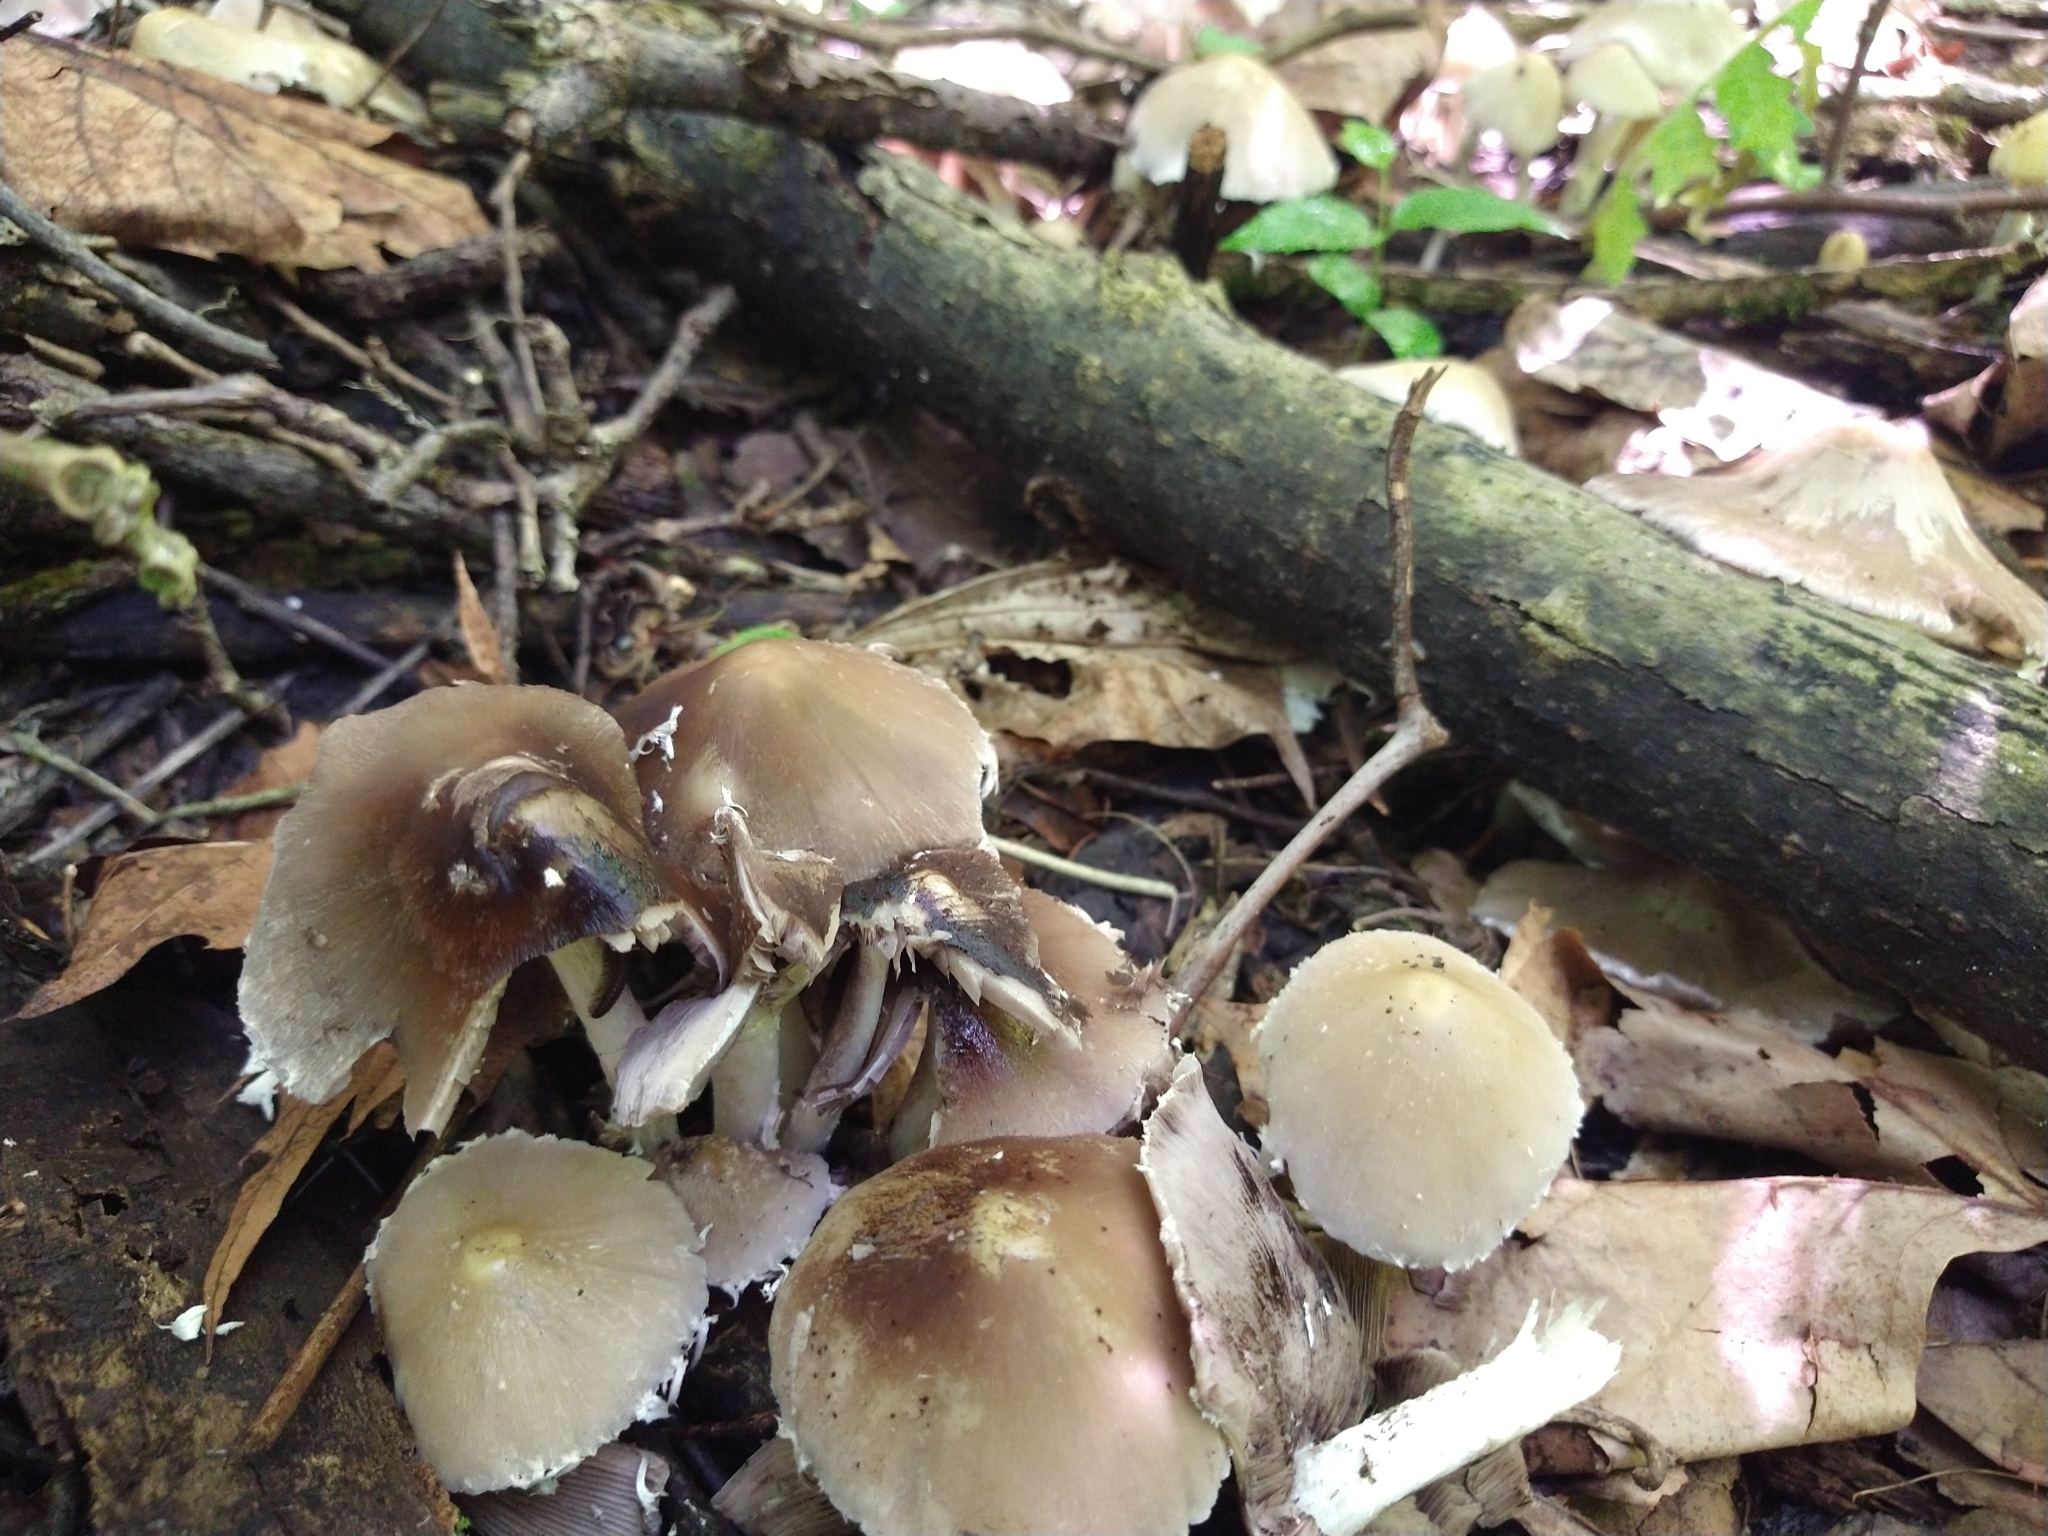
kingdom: Fungi
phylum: Basidiomycota
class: Agaricomycetes
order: Agaricales
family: Psathyrellaceae
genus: Candolleomyces
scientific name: Candolleomyces candolleanus
